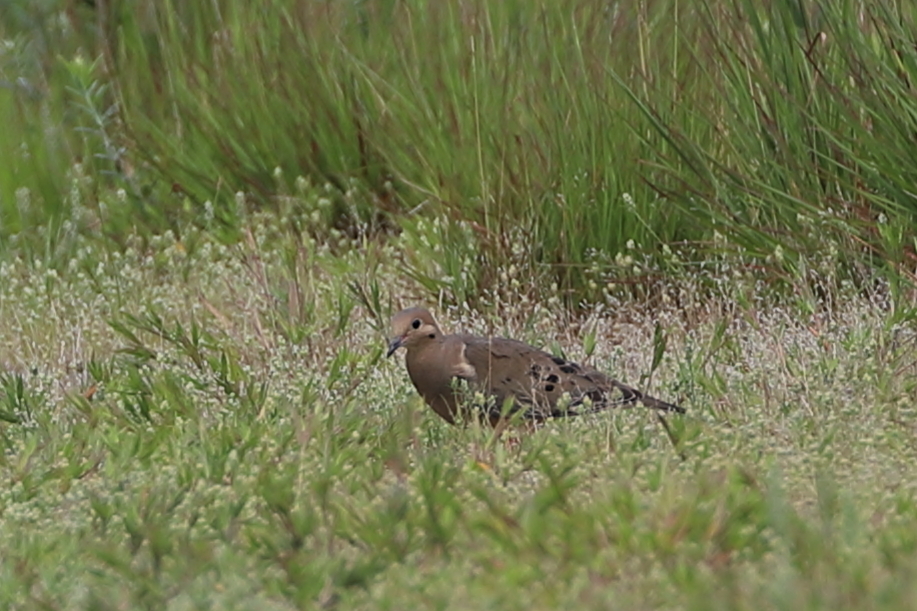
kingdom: Animalia
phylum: Chordata
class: Aves
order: Columbiformes
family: Columbidae
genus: Zenaida
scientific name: Zenaida macroura
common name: Mourning dove
